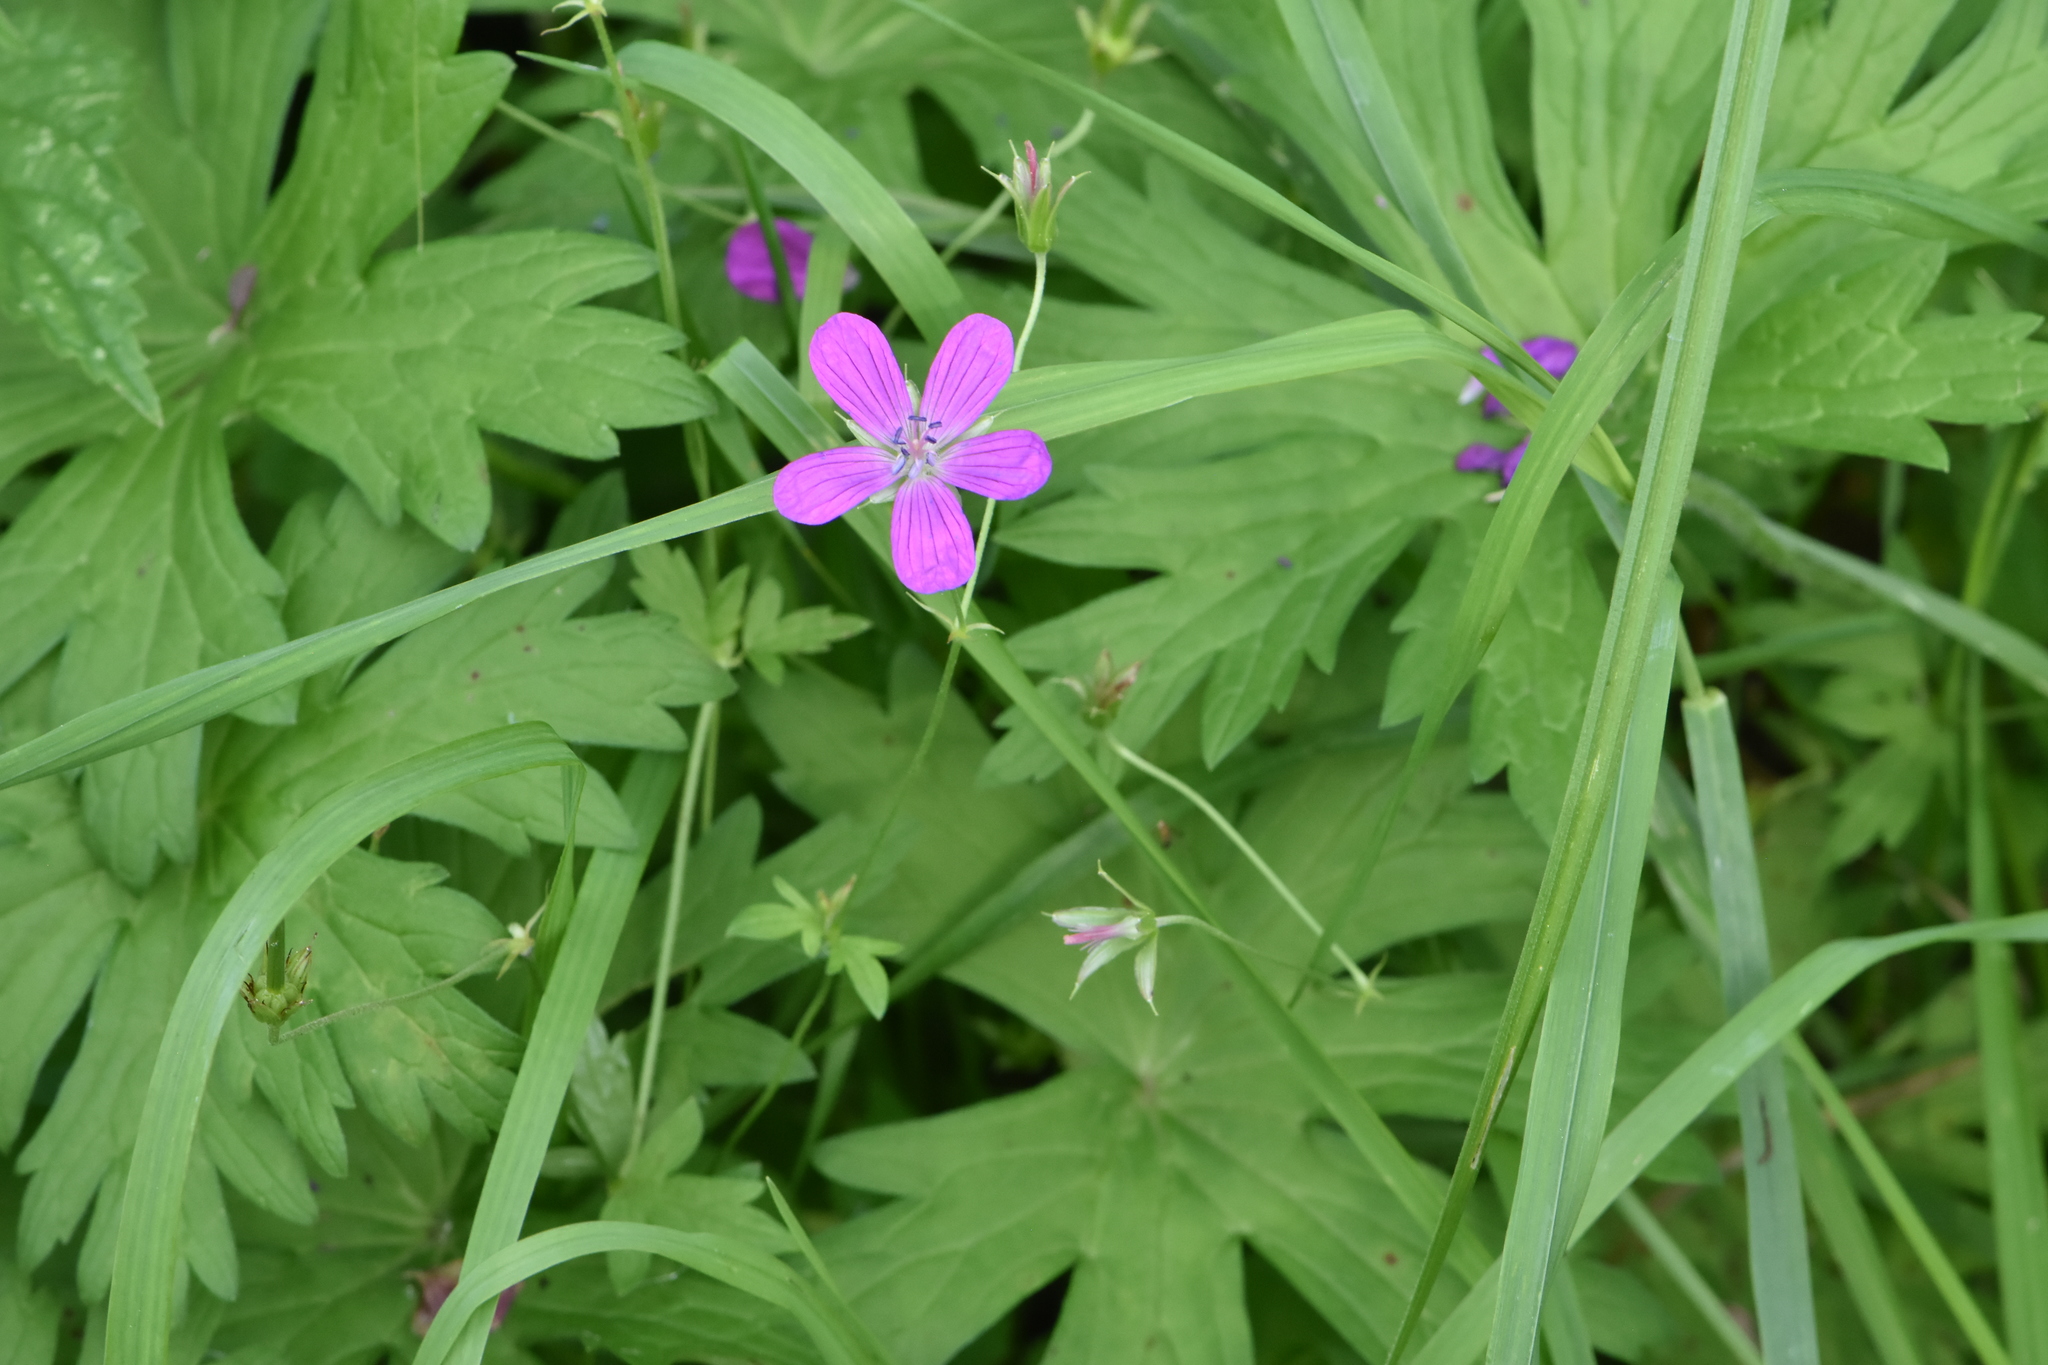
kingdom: Plantae
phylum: Tracheophyta
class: Magnoliopsida
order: Geraniales
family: Geraniaceae
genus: Geranium
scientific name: Geranium palustre
